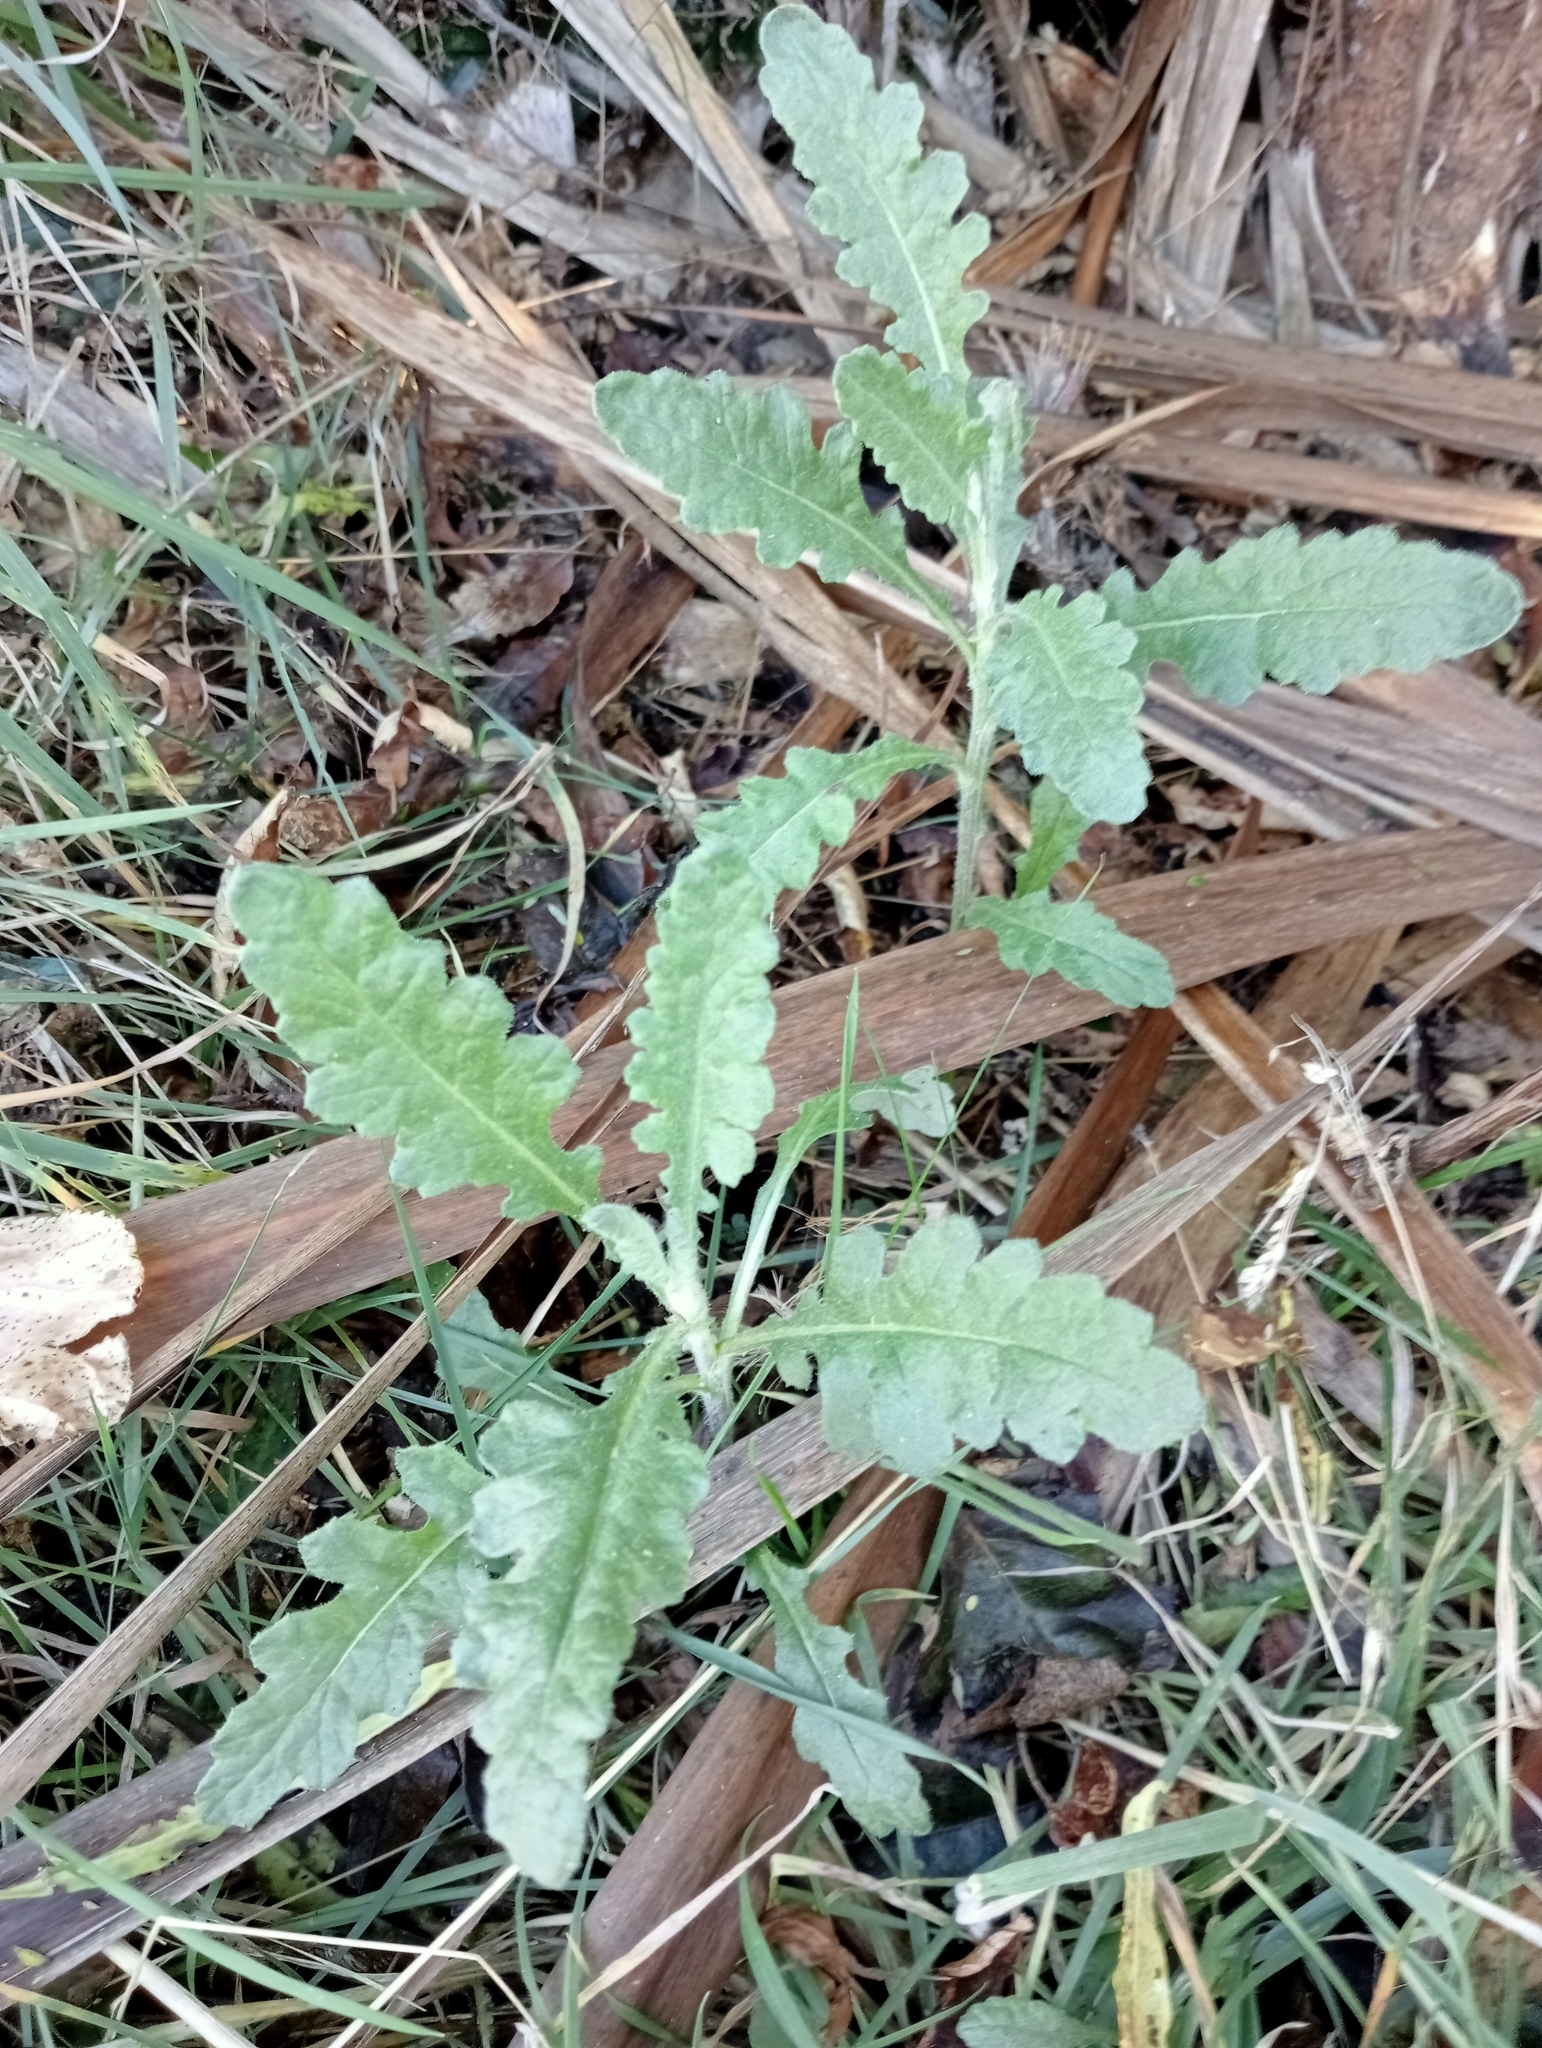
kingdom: Plantae
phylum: Tracheophyta
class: Magnoliopsida
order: Asterales
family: Asteraceae
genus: Senecio
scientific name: Senecio glomeratus
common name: Cutleaf burnweed
